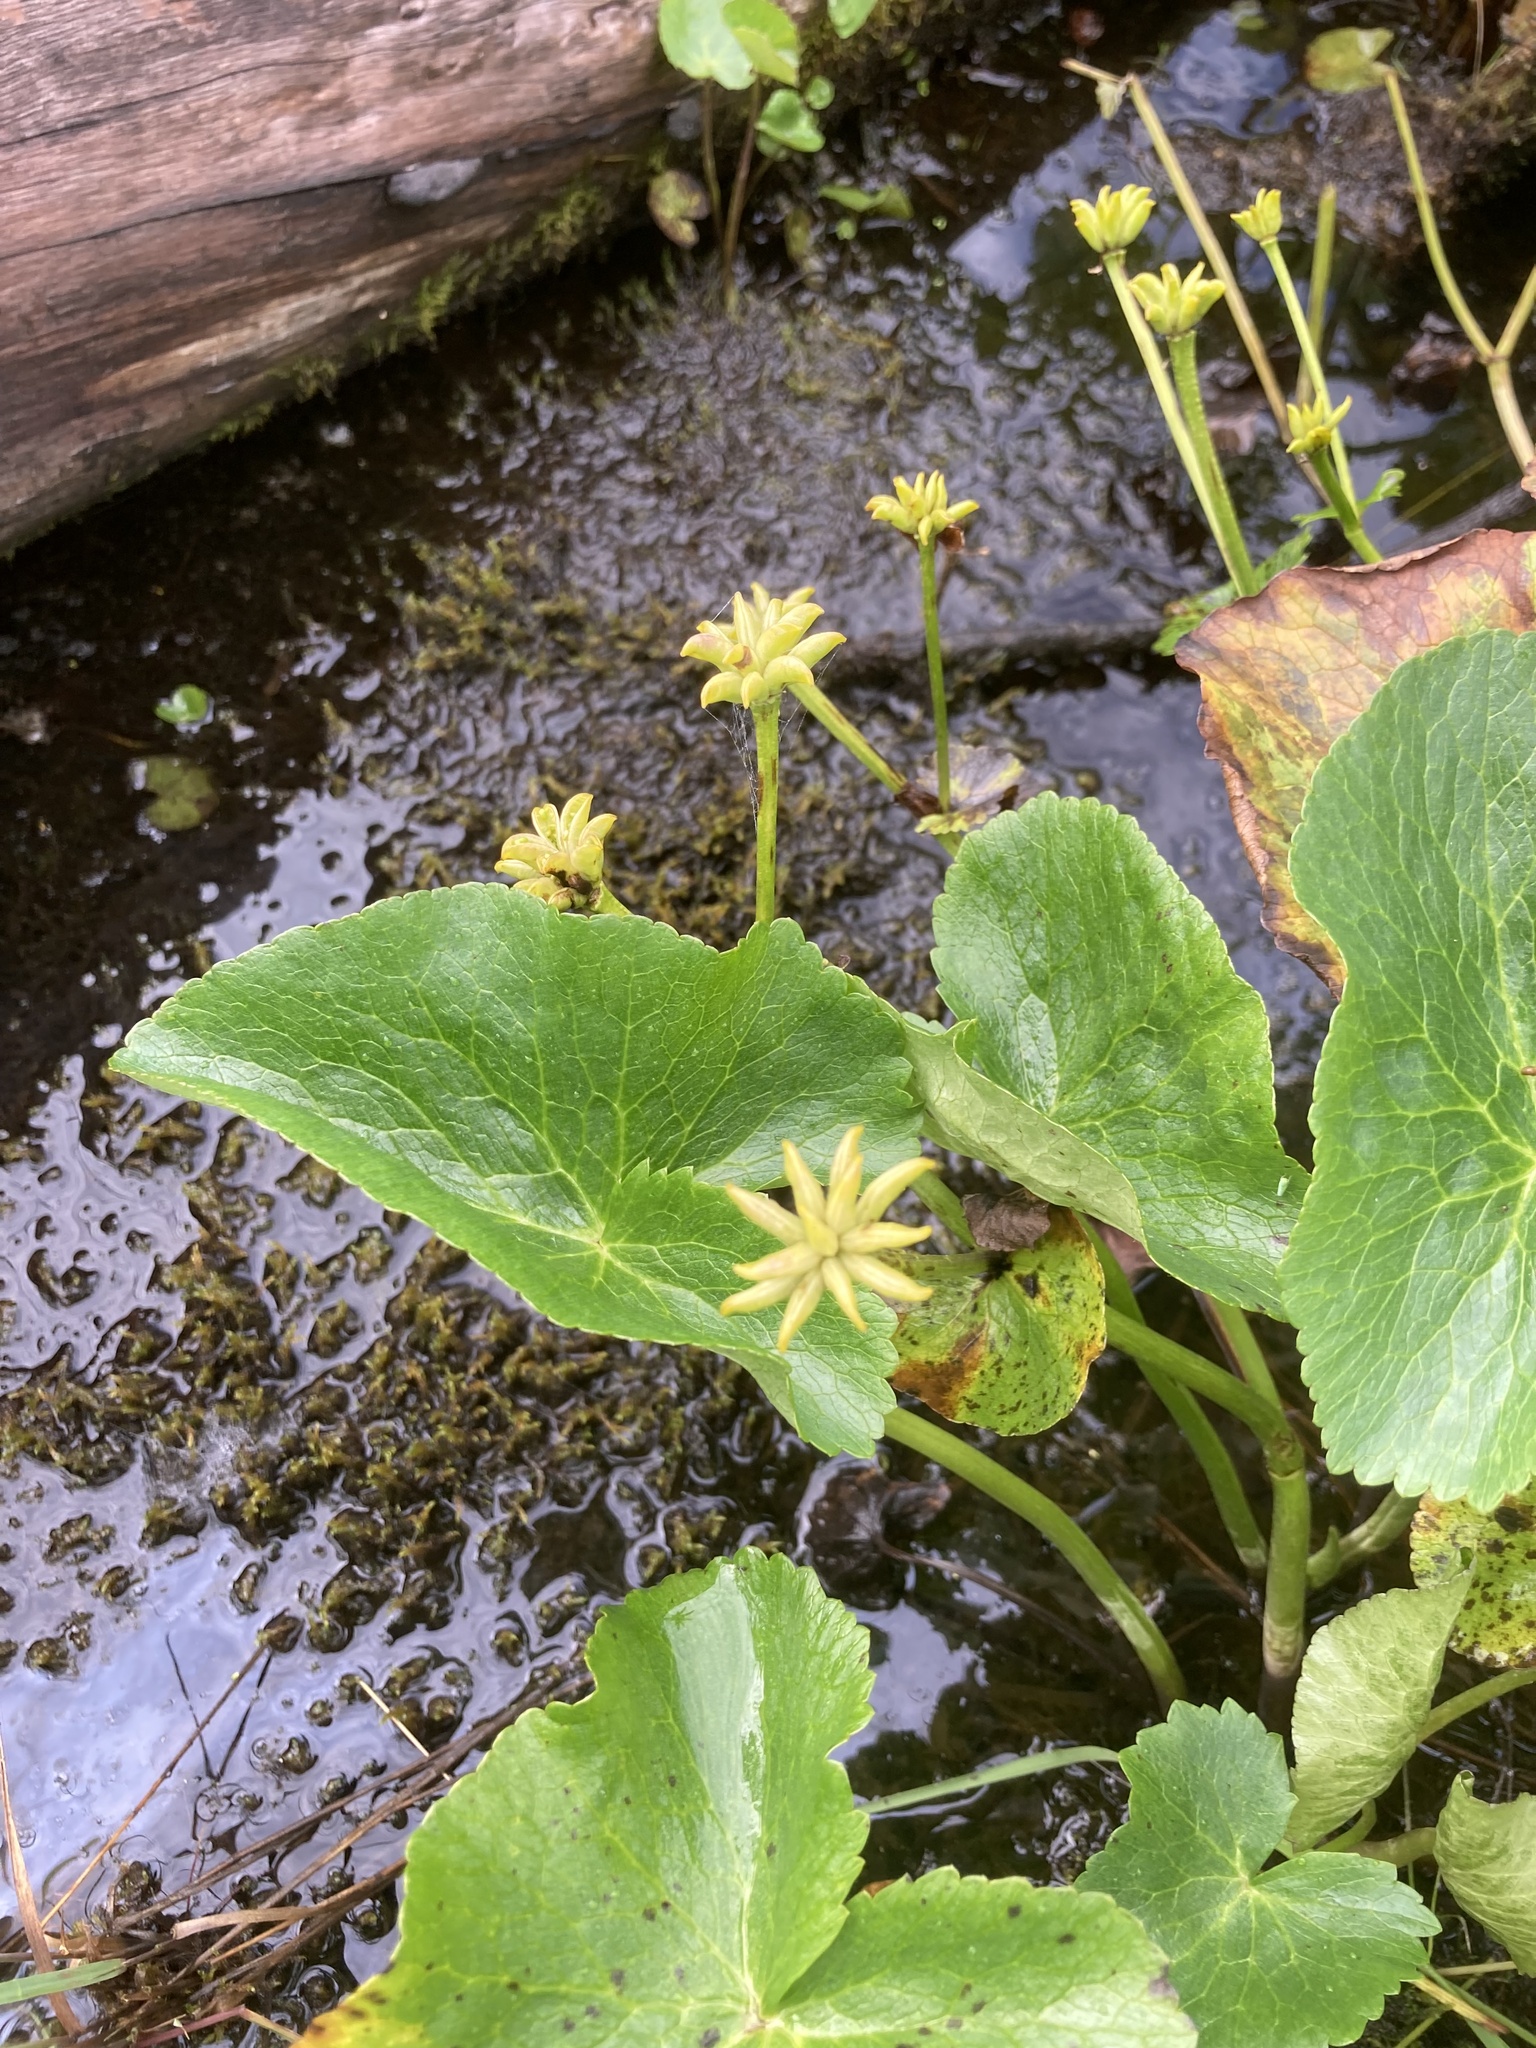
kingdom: Plantae
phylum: Tracheophyta
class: Magnoliopsida
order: Ranunculales
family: Ranunculaceae
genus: Caltha
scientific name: Caltha palustris
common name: Marsh marigold
